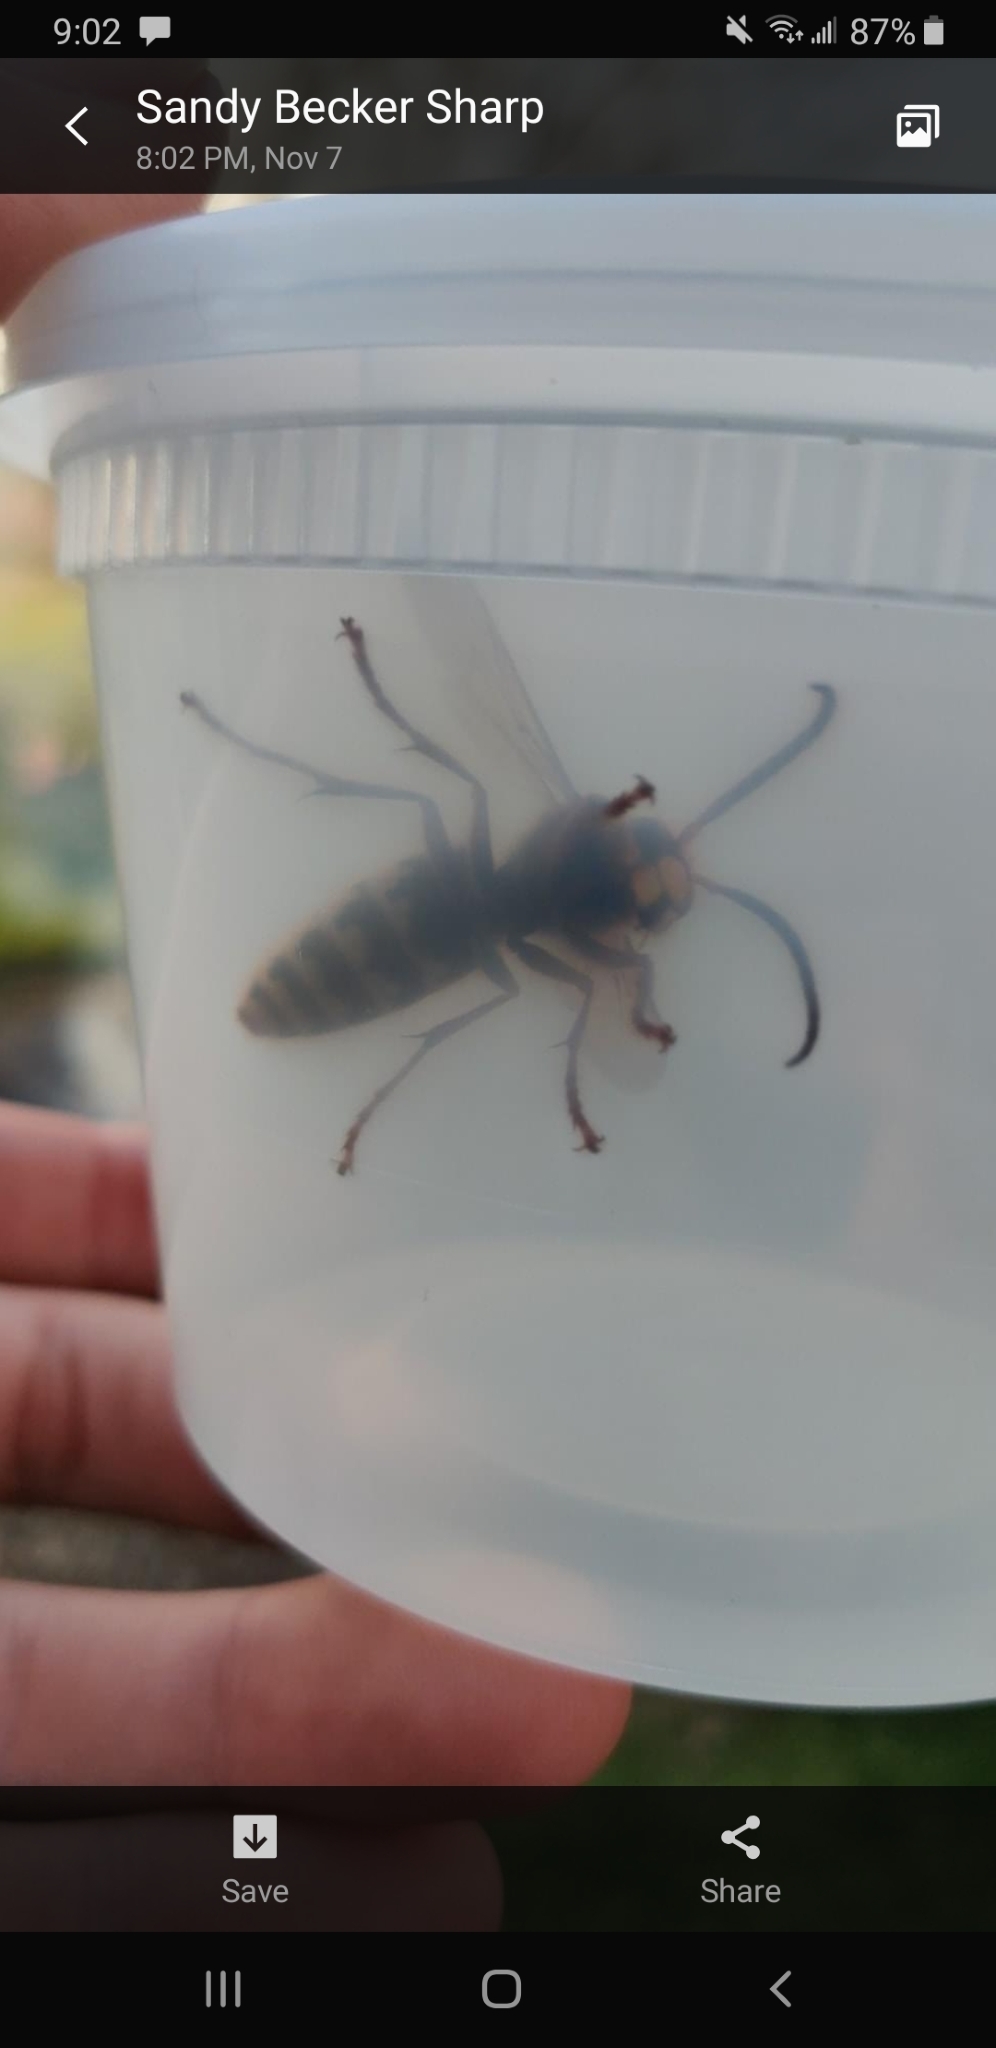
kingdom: Animalia
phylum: Arthropoda
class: Insecta
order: Hymenoptera
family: Vespidae
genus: Vespa
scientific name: Vespa crabro
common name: Hornet
